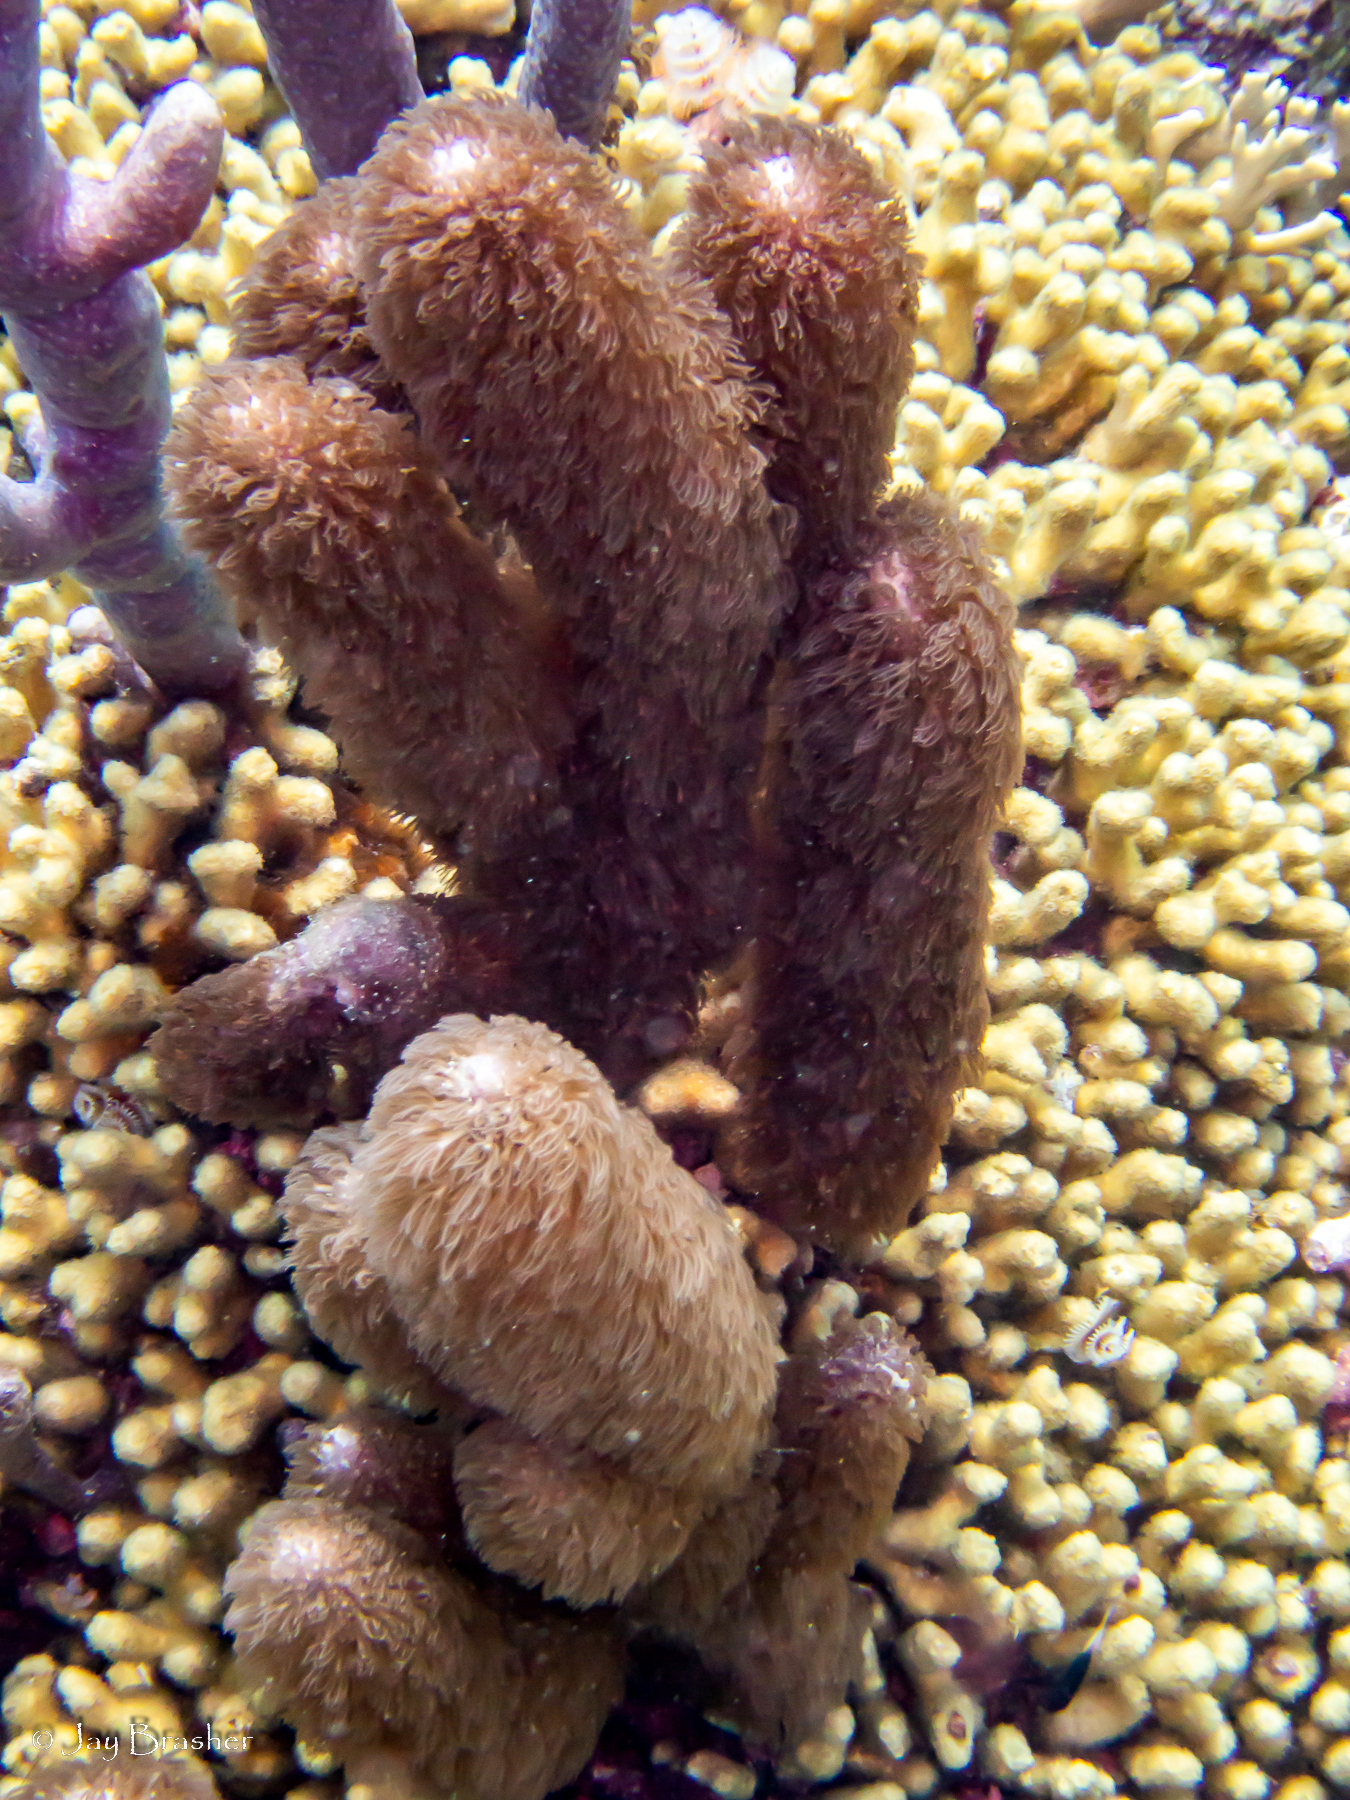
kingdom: Animalia
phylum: Cnidaria
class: Anthozoa
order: Scleralcyonacea
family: Briareidae
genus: Briareum
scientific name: Briareum asbestinum
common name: Corky sea finger
